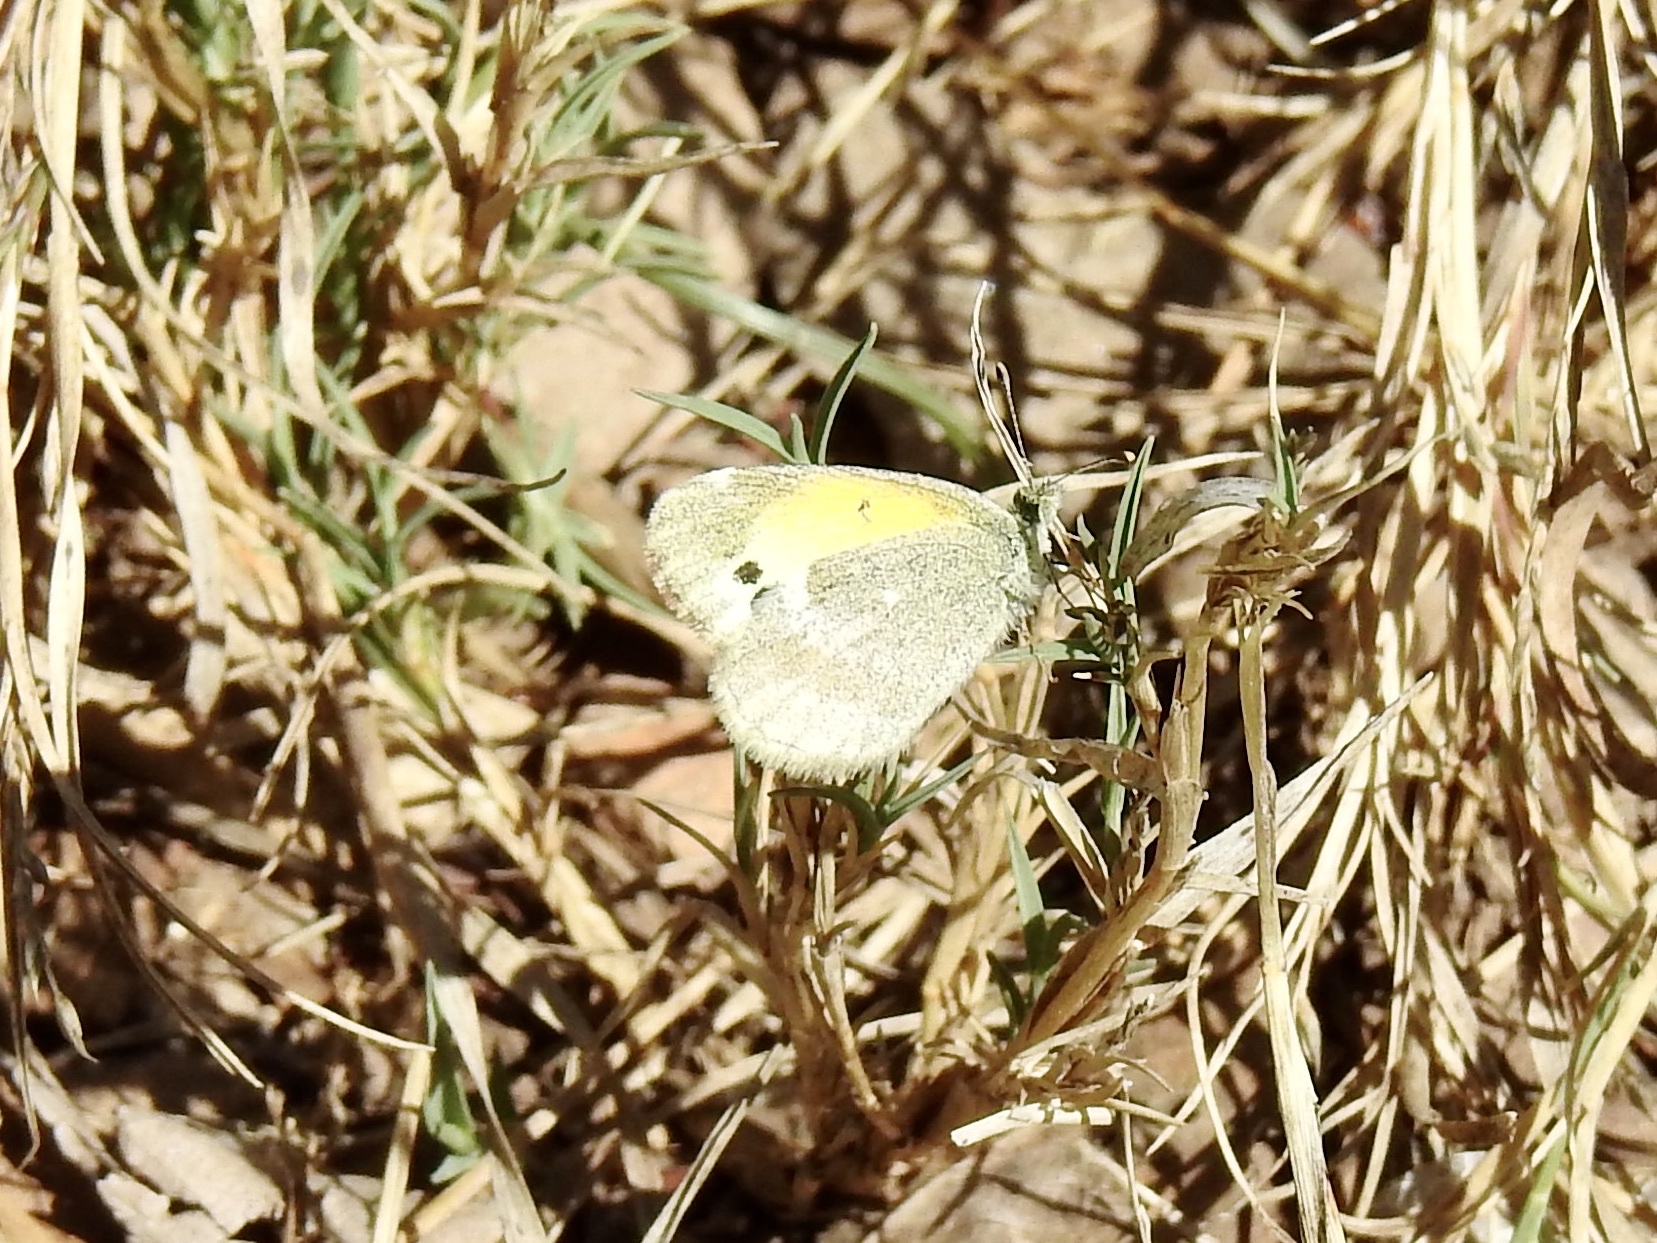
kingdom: Animalia
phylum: Arthropoda
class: Insecta
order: Lepidoptera
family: Pieridae
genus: Nathalis
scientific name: Nathalis iole
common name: Dainty sulphur
